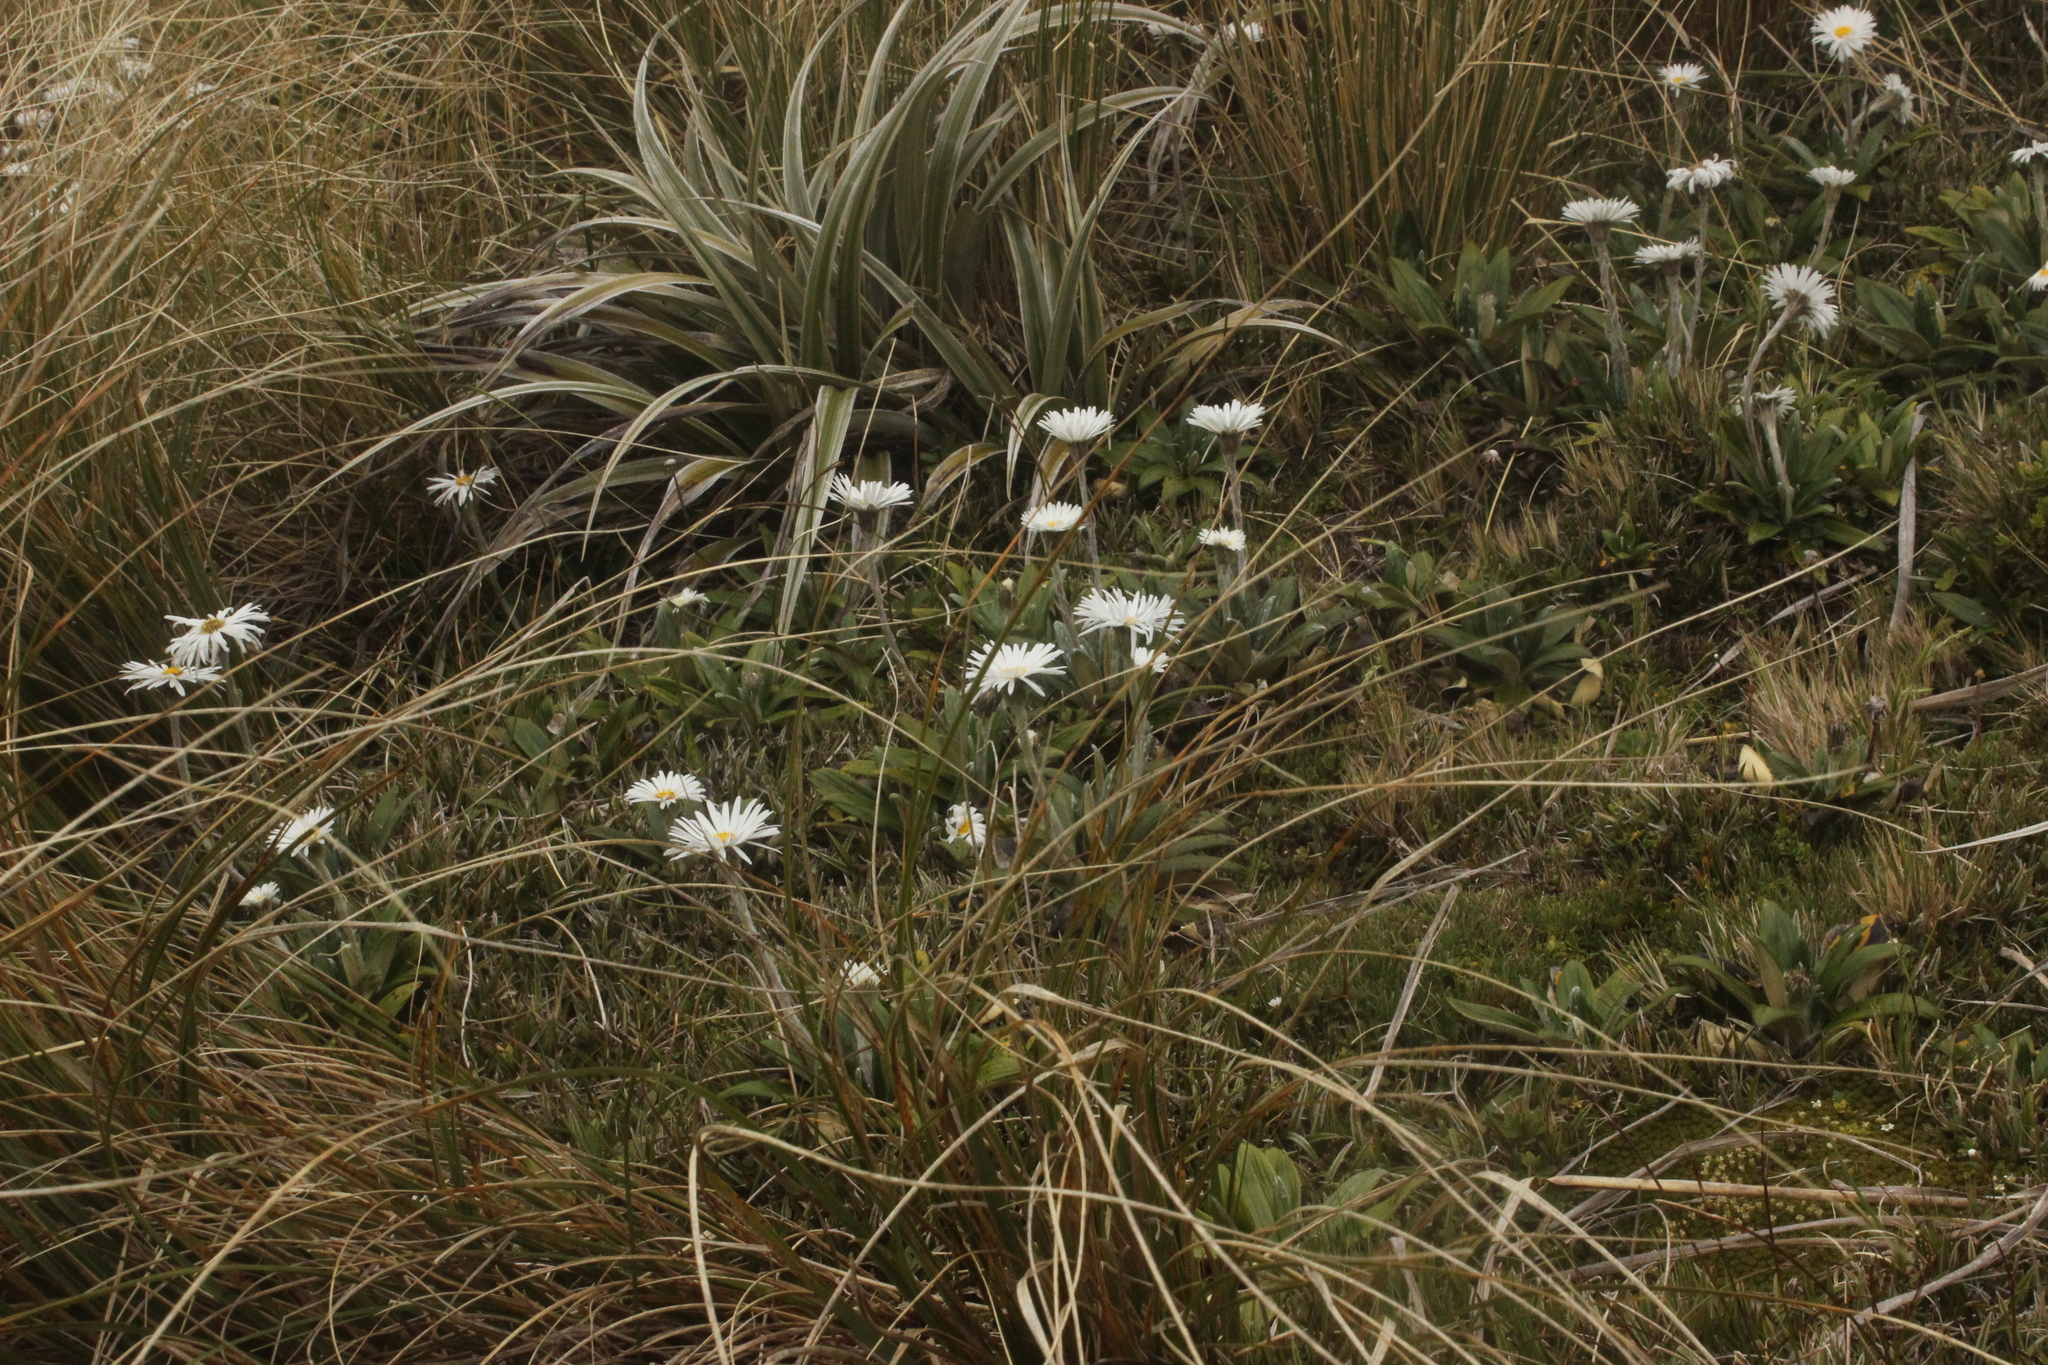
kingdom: Plantae
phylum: Tracheophyta
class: Magnoliopsida
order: Asterales
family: Asteraceae
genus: Celmisia
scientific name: Celmisia spectabilis
